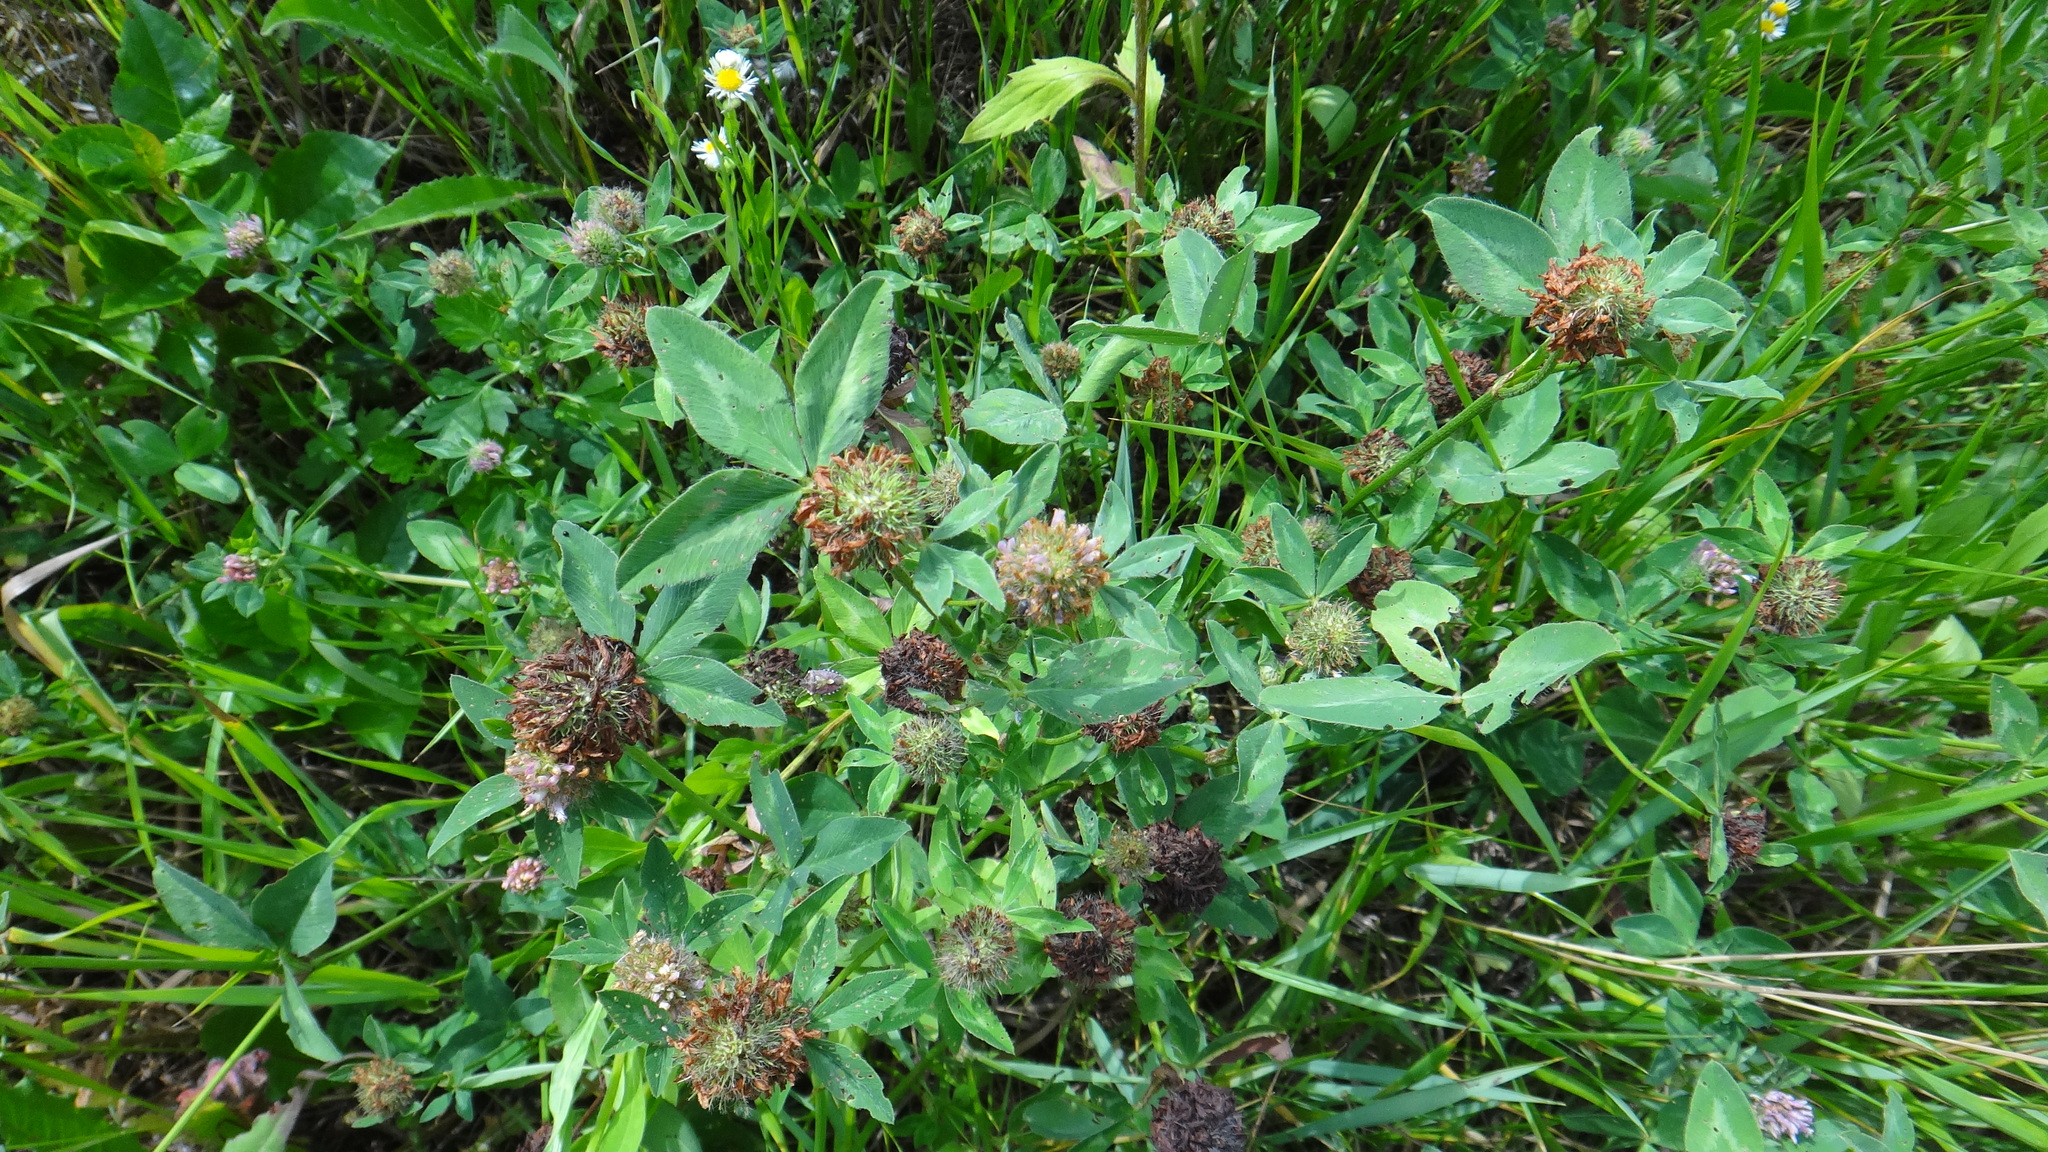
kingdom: Plantae
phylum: Tracheophyta
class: Magnoliopsida
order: Fabales
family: Fabaceae
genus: Trifolium
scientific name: Trifolium pratense
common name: Red clover
